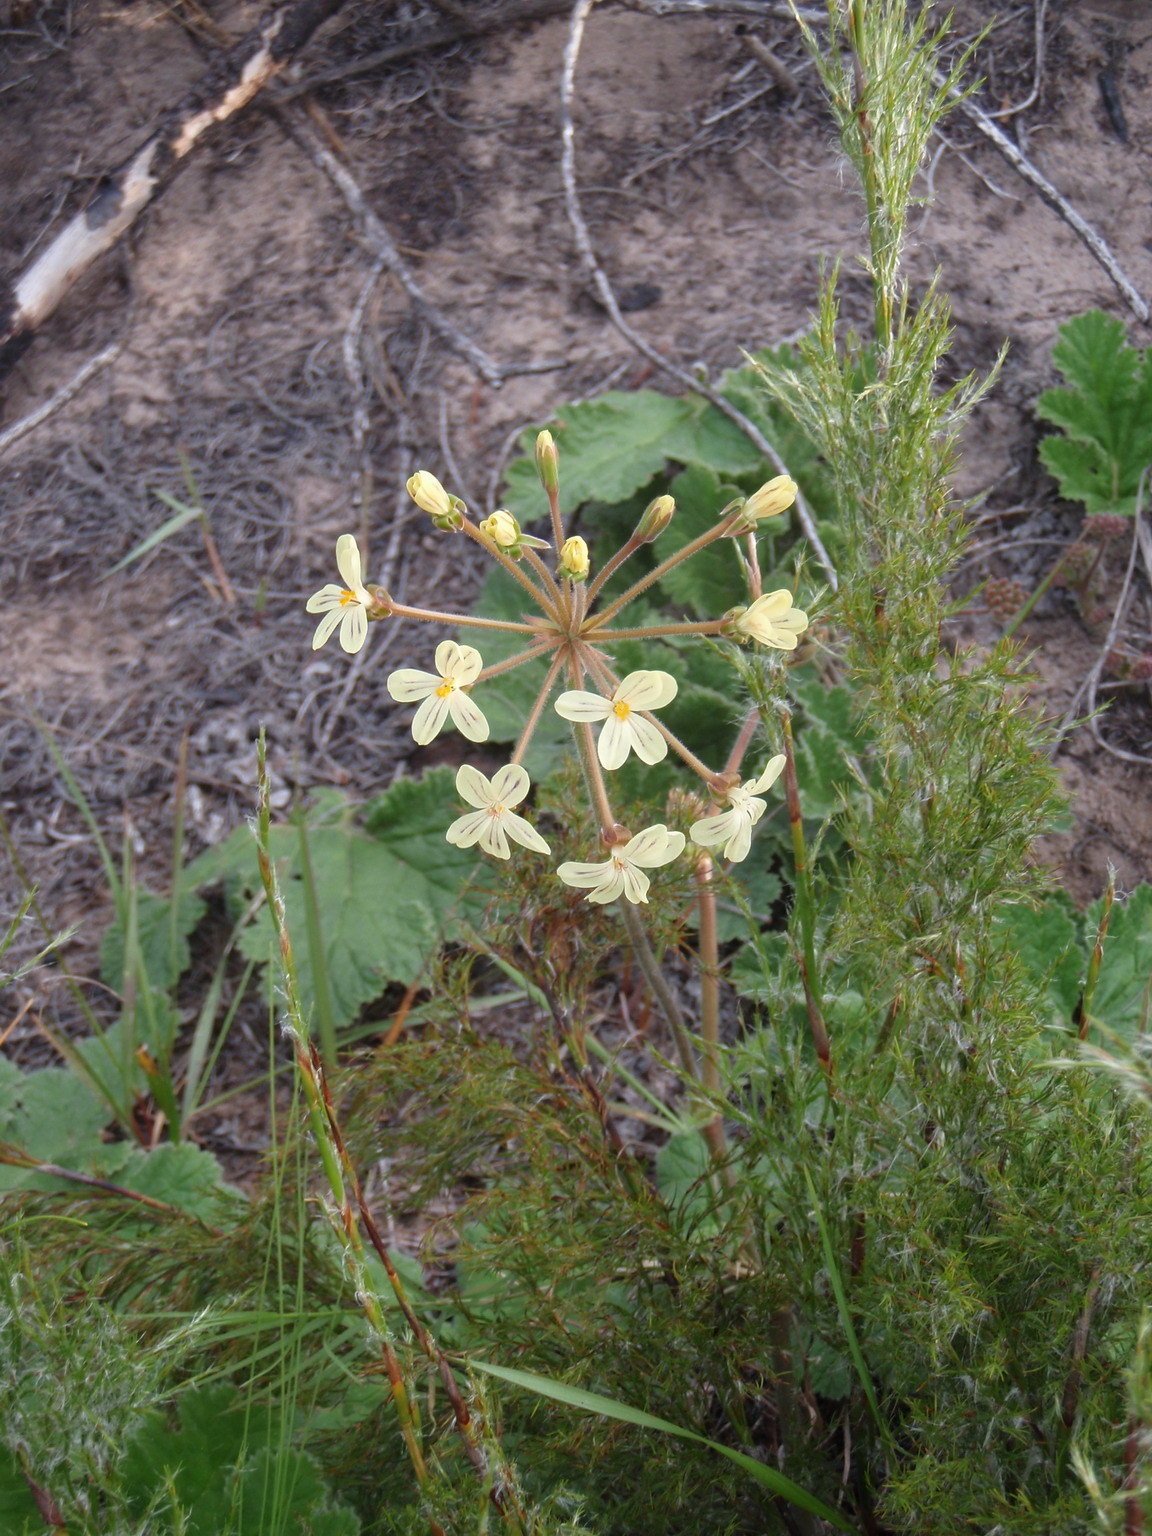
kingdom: Plantae
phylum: Tracheophyta
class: Magnoliopsida
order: Geraniales
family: Geraniaceae
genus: Pelargonium
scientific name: Pelargonium lobatum
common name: Vine-leaf pelargonium
